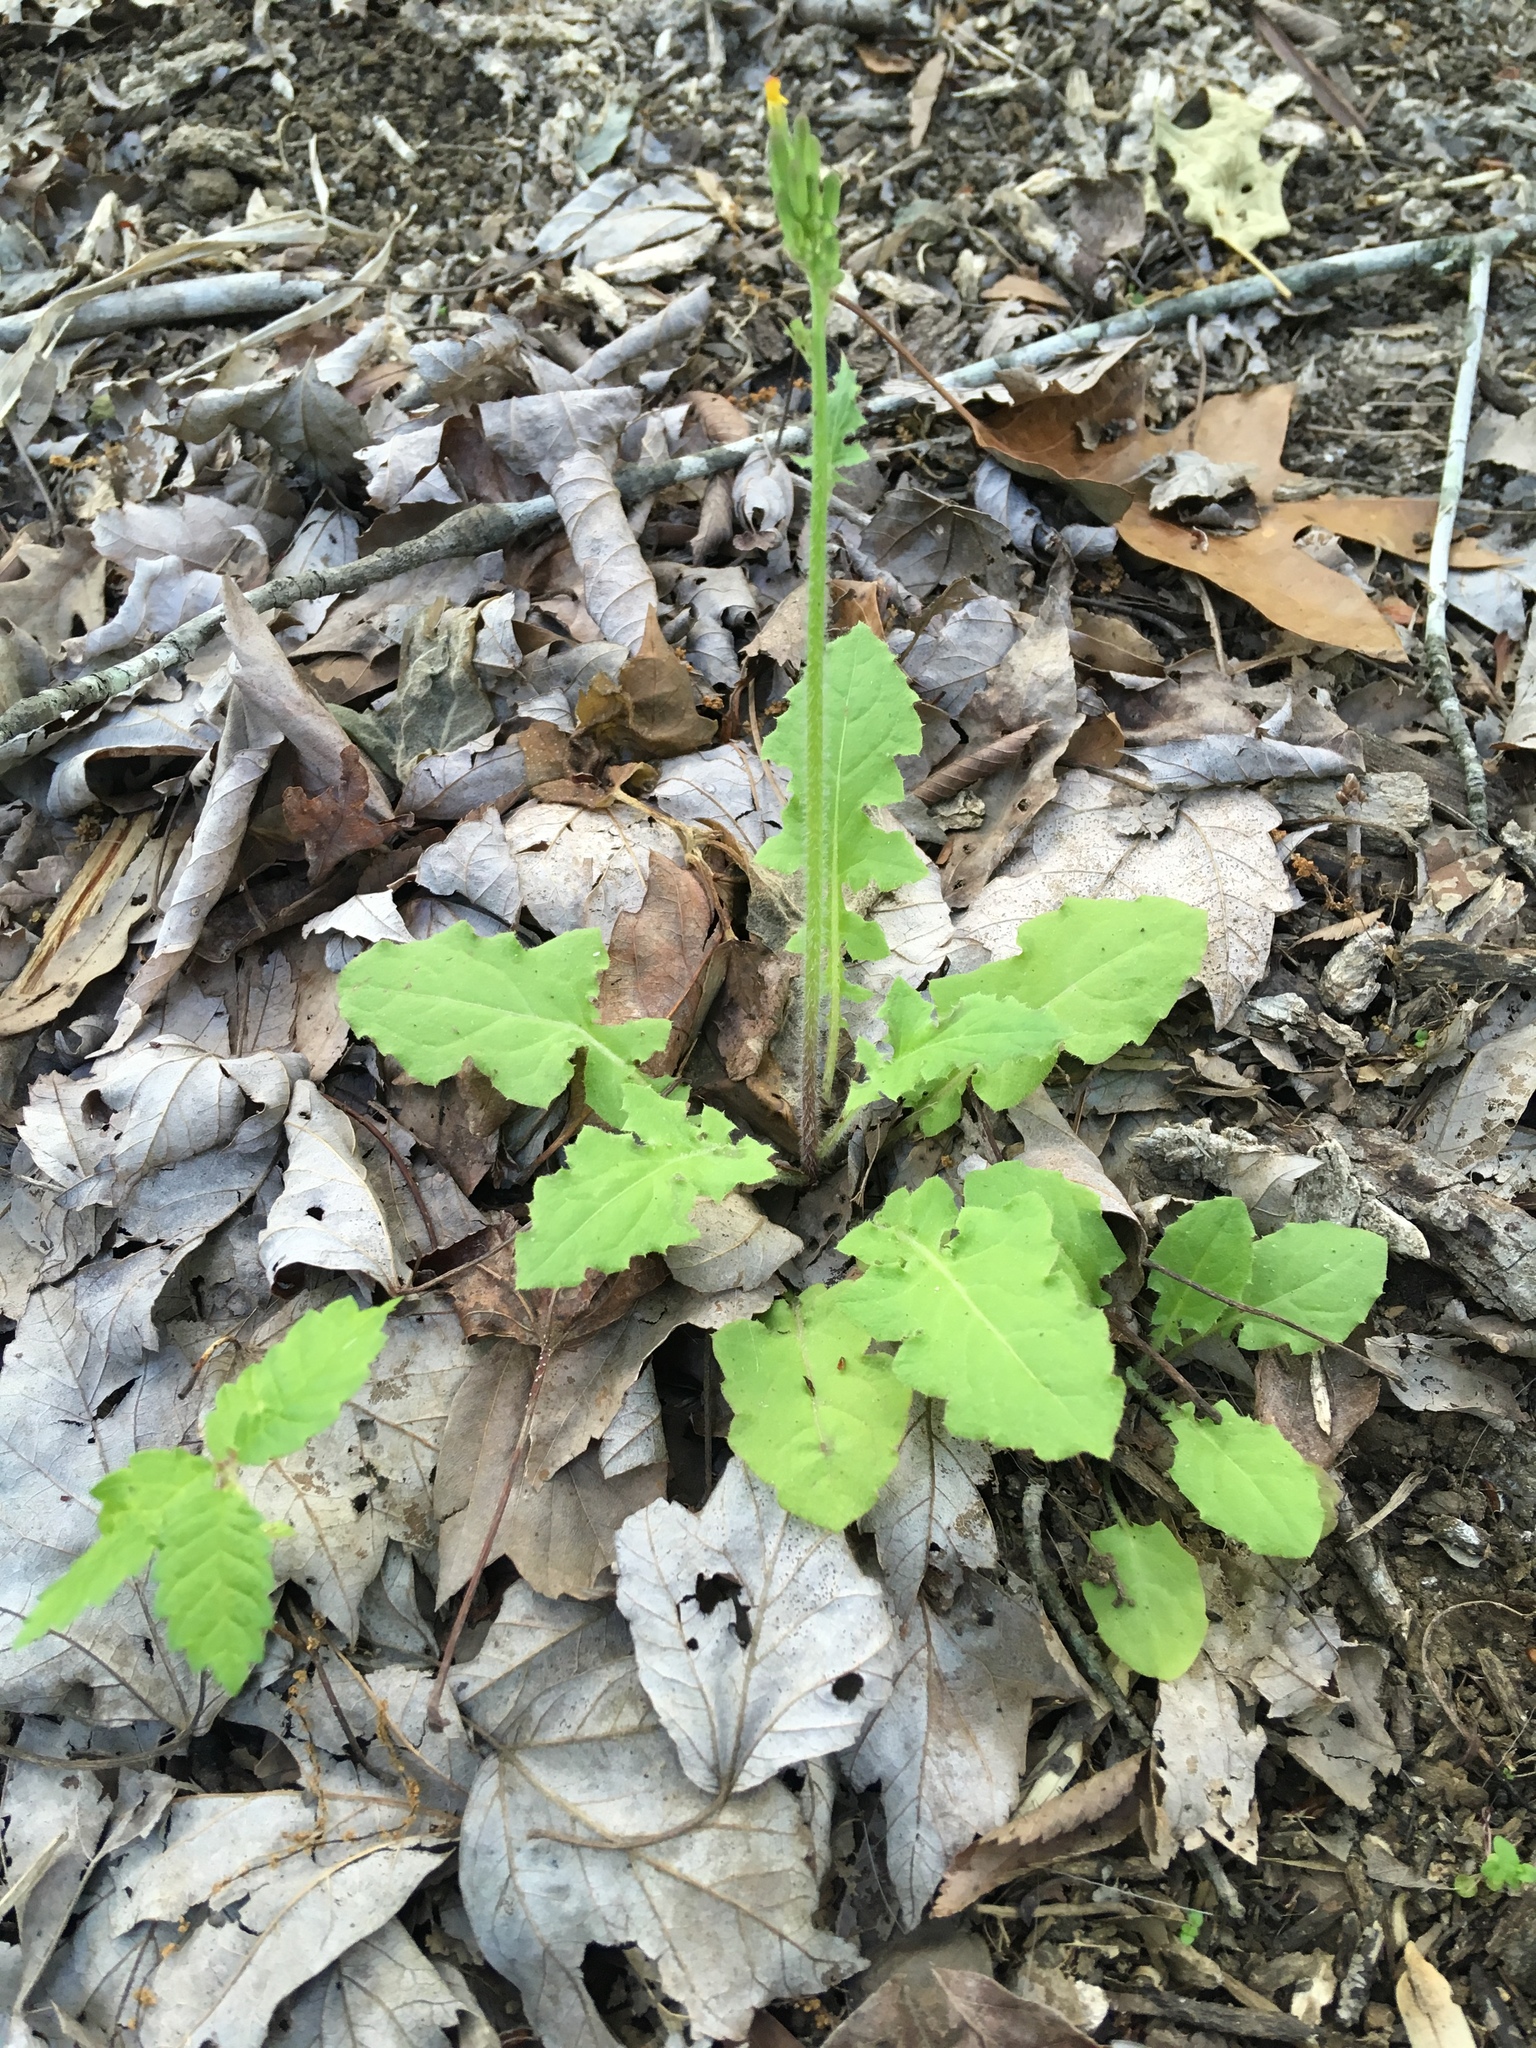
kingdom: Plantae
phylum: Tracheophyta
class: Magnoliopsida
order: Asterales
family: Asteraceae
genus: Youngia
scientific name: Youngia japonica
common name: Oriental false hawksbeard
